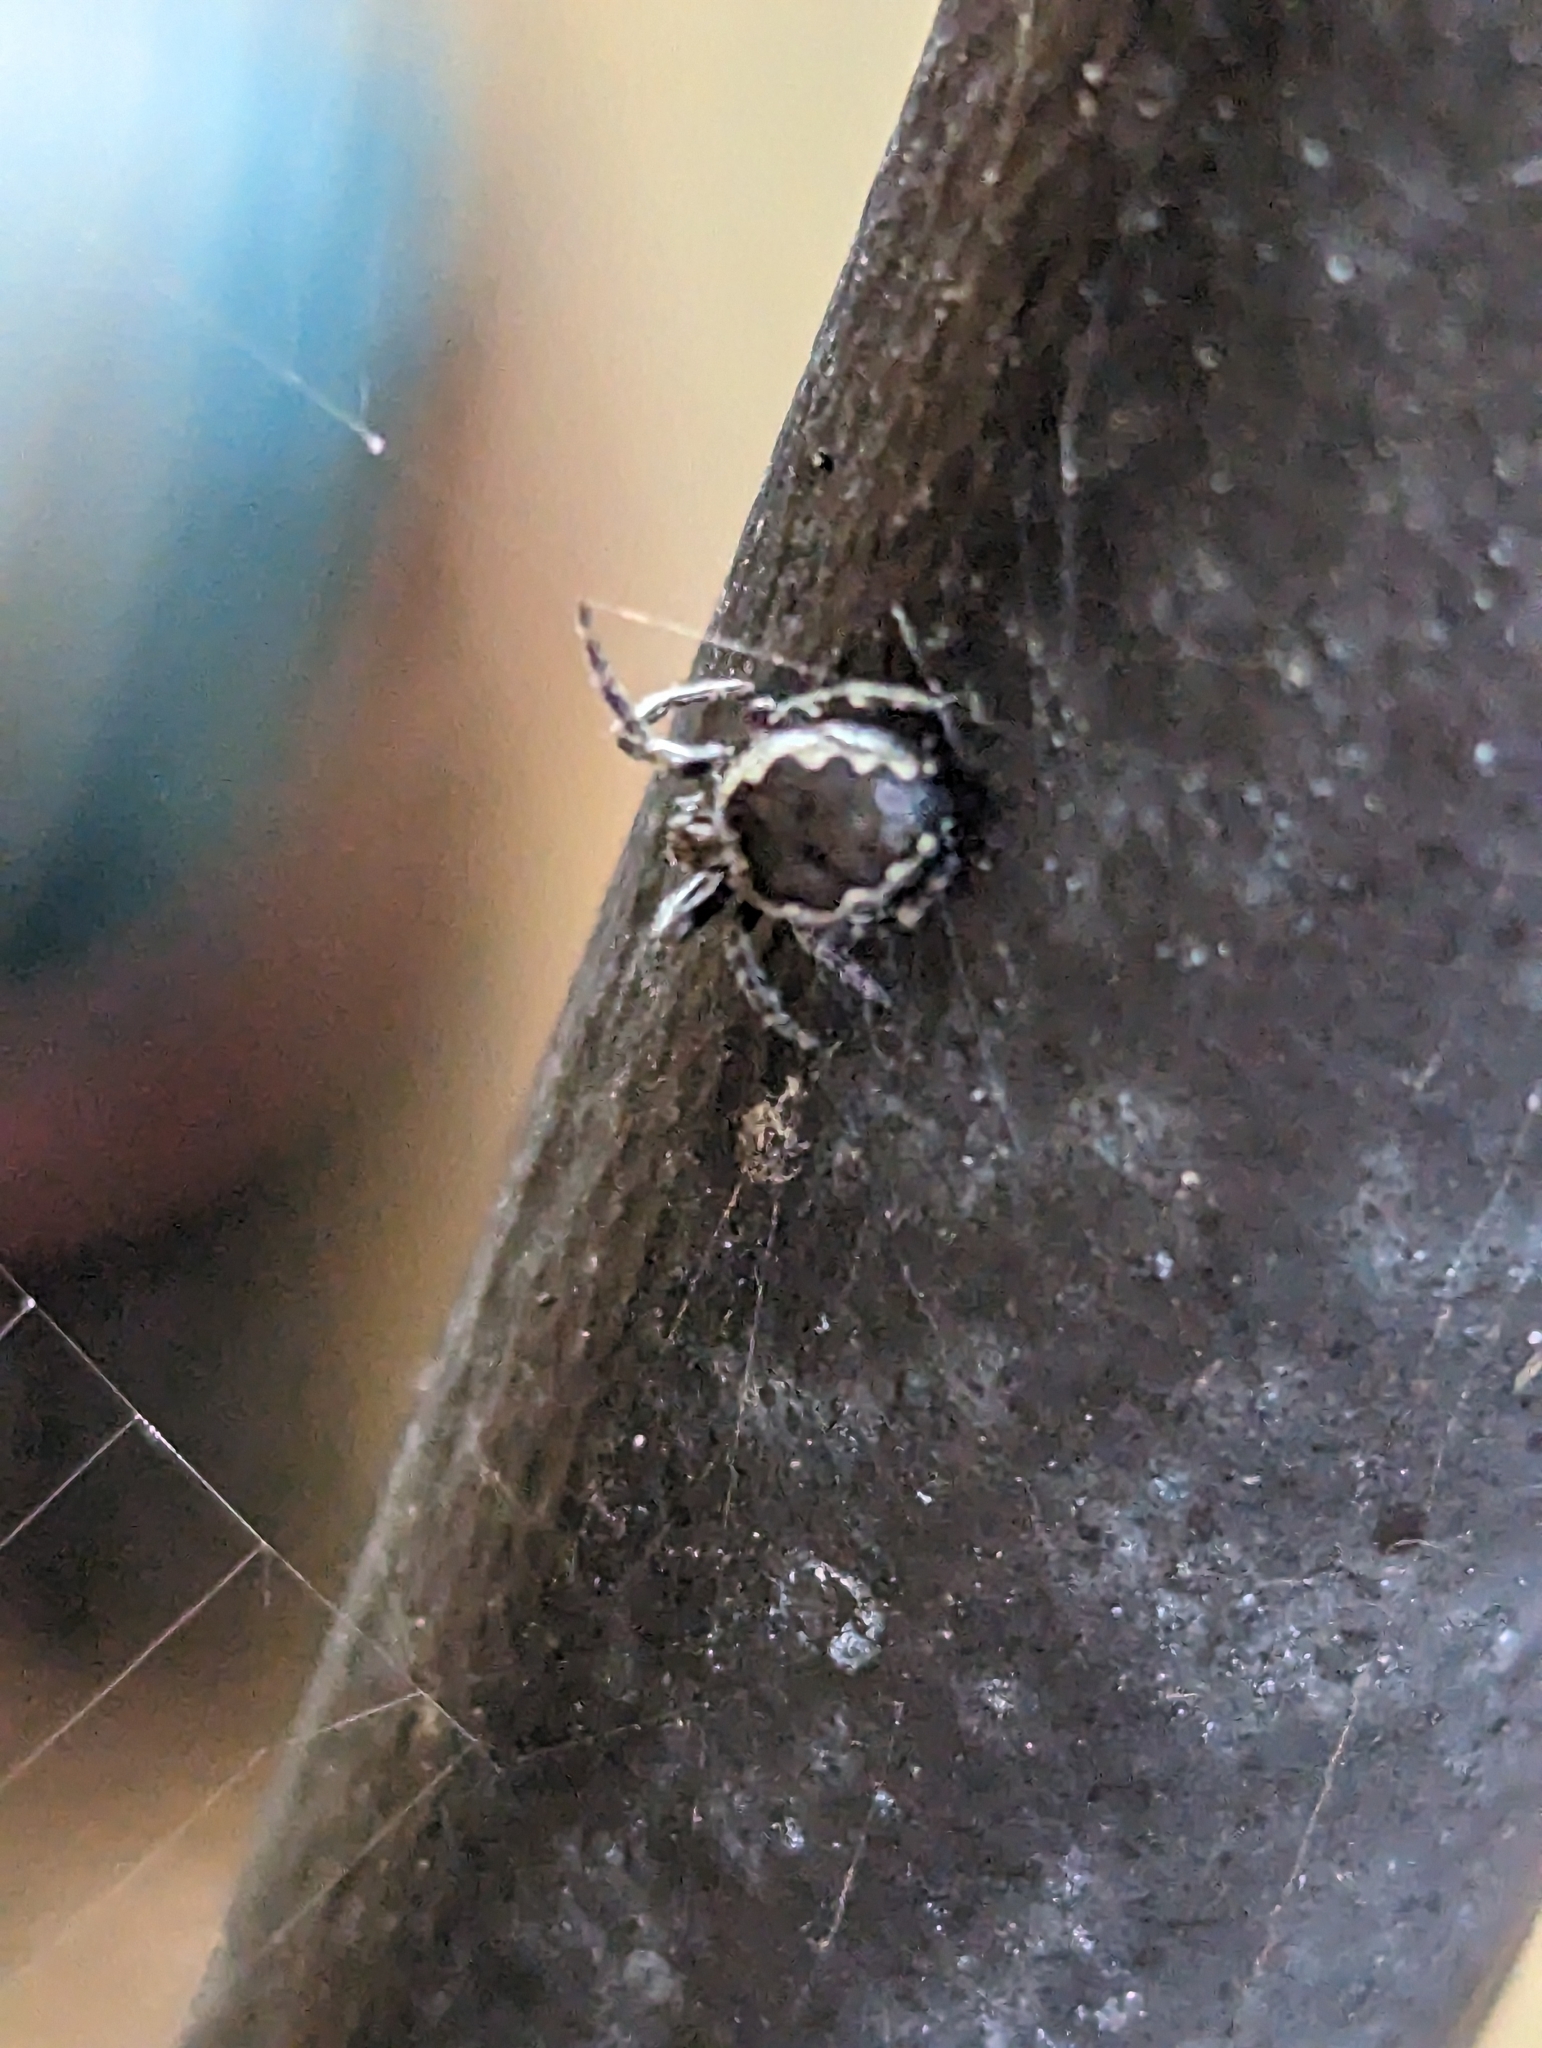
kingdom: Animalia
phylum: Arthropoda
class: Arachnida
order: Araneae
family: Araneidae
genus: Nuctenea
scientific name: Nuctenea umbratica
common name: Toad spider
